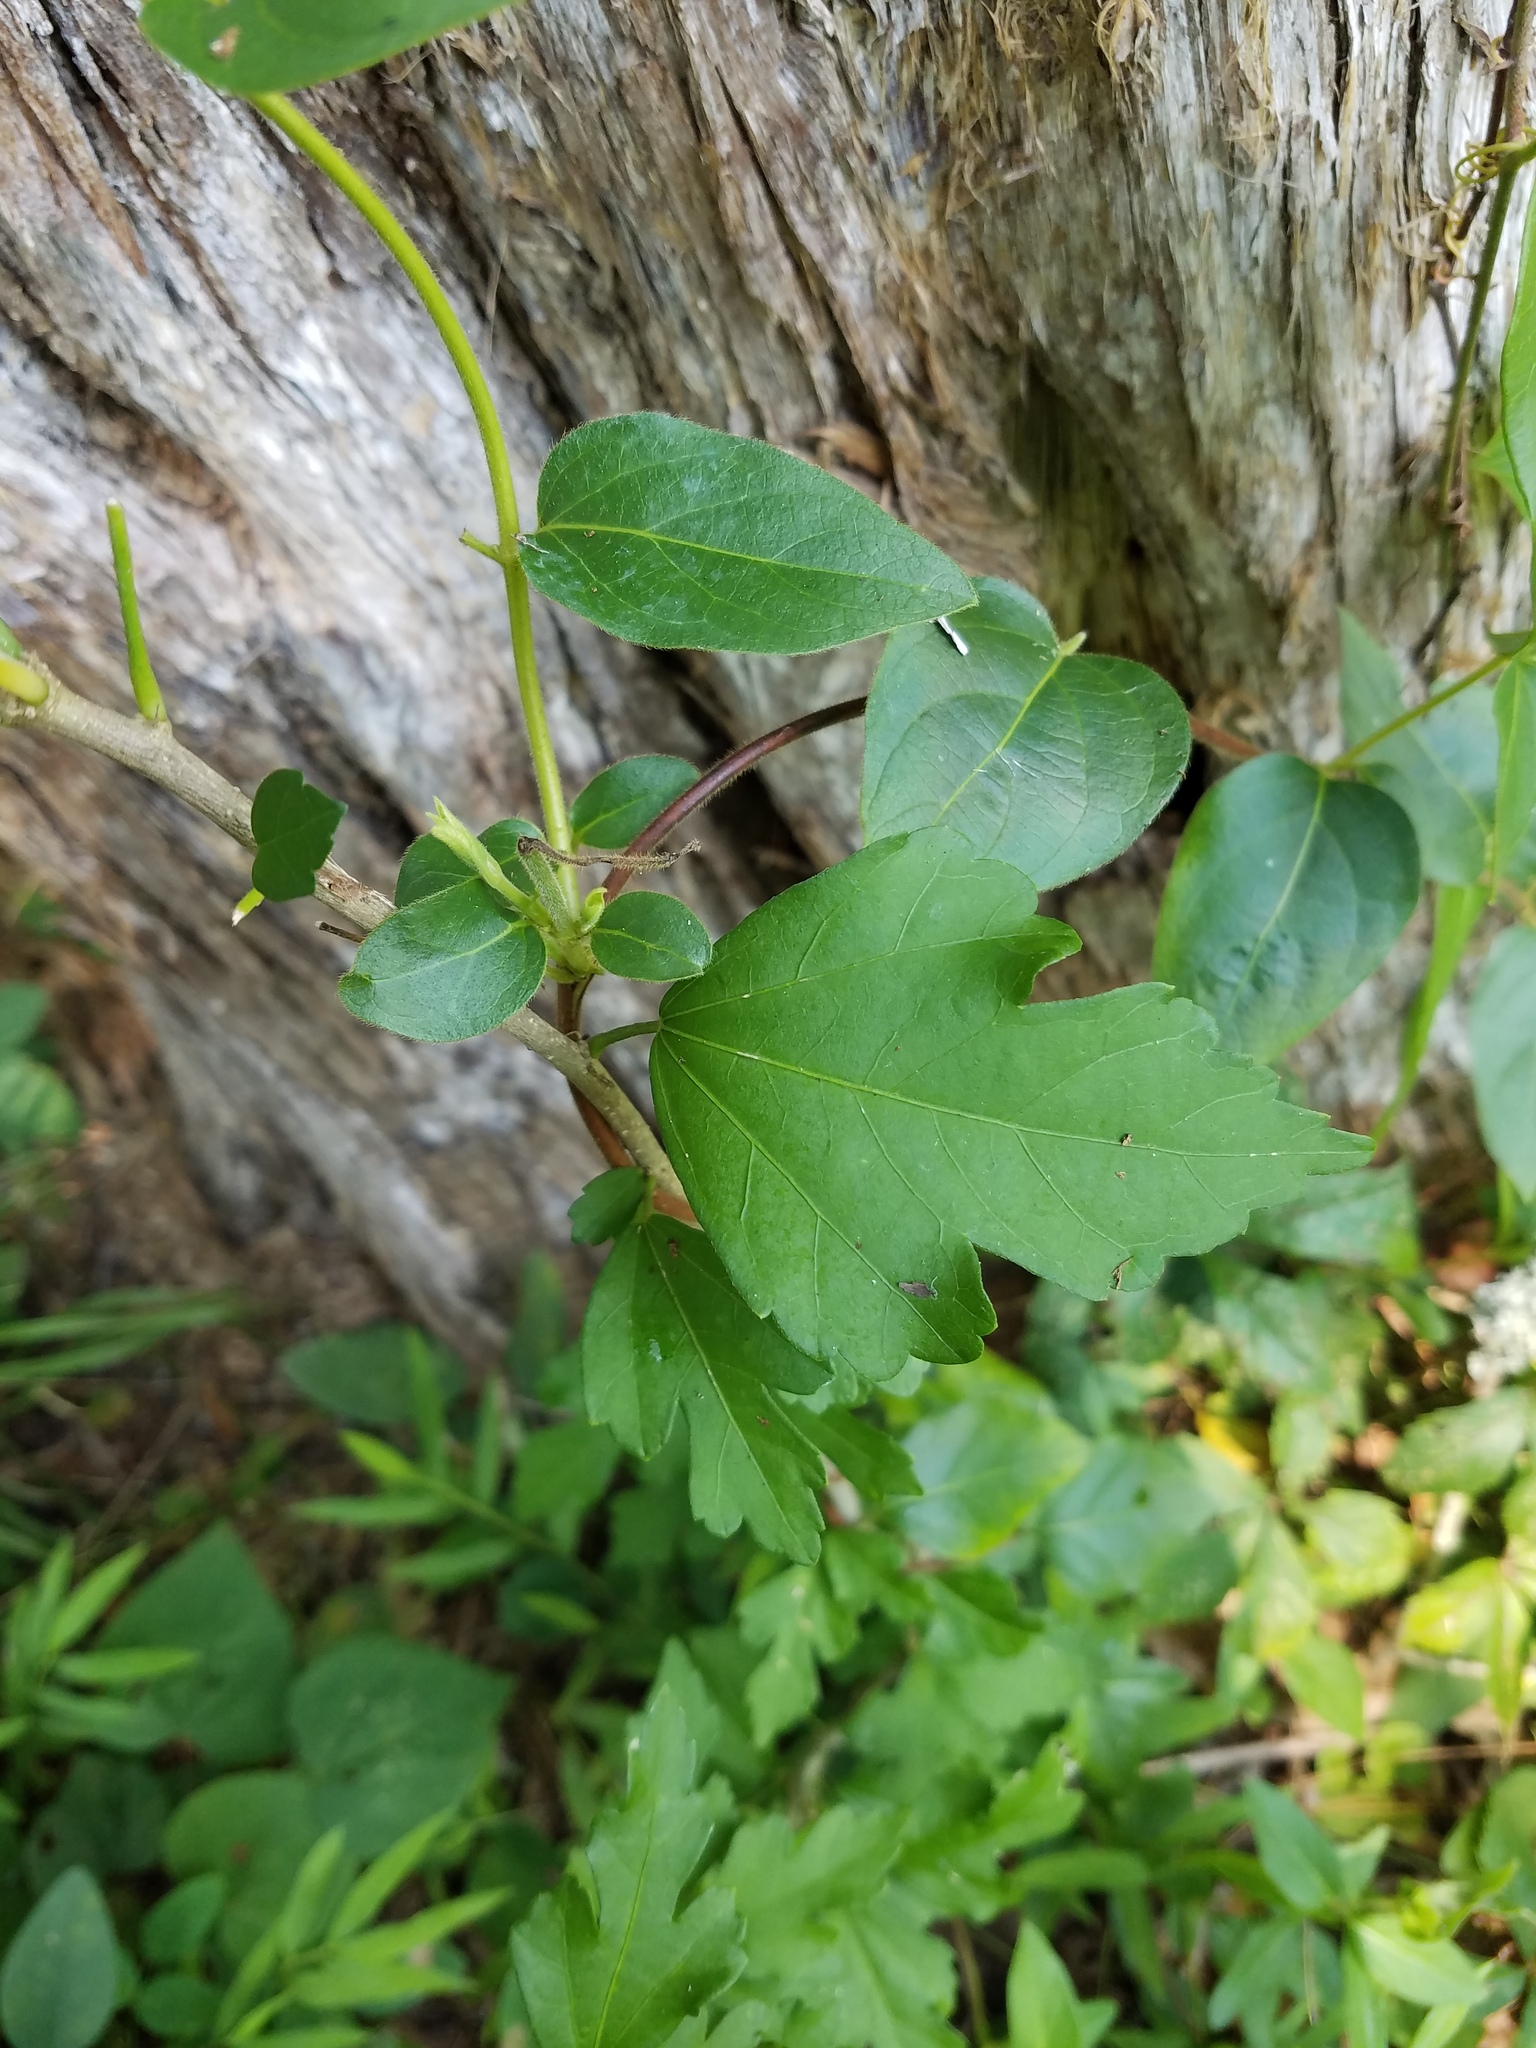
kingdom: Plantae
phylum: Tracheophyta
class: Magnoliopsida
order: Malvales
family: Malvaceae
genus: Hibiscus
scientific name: Hibiscus syriacus
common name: Syrian ketmia
